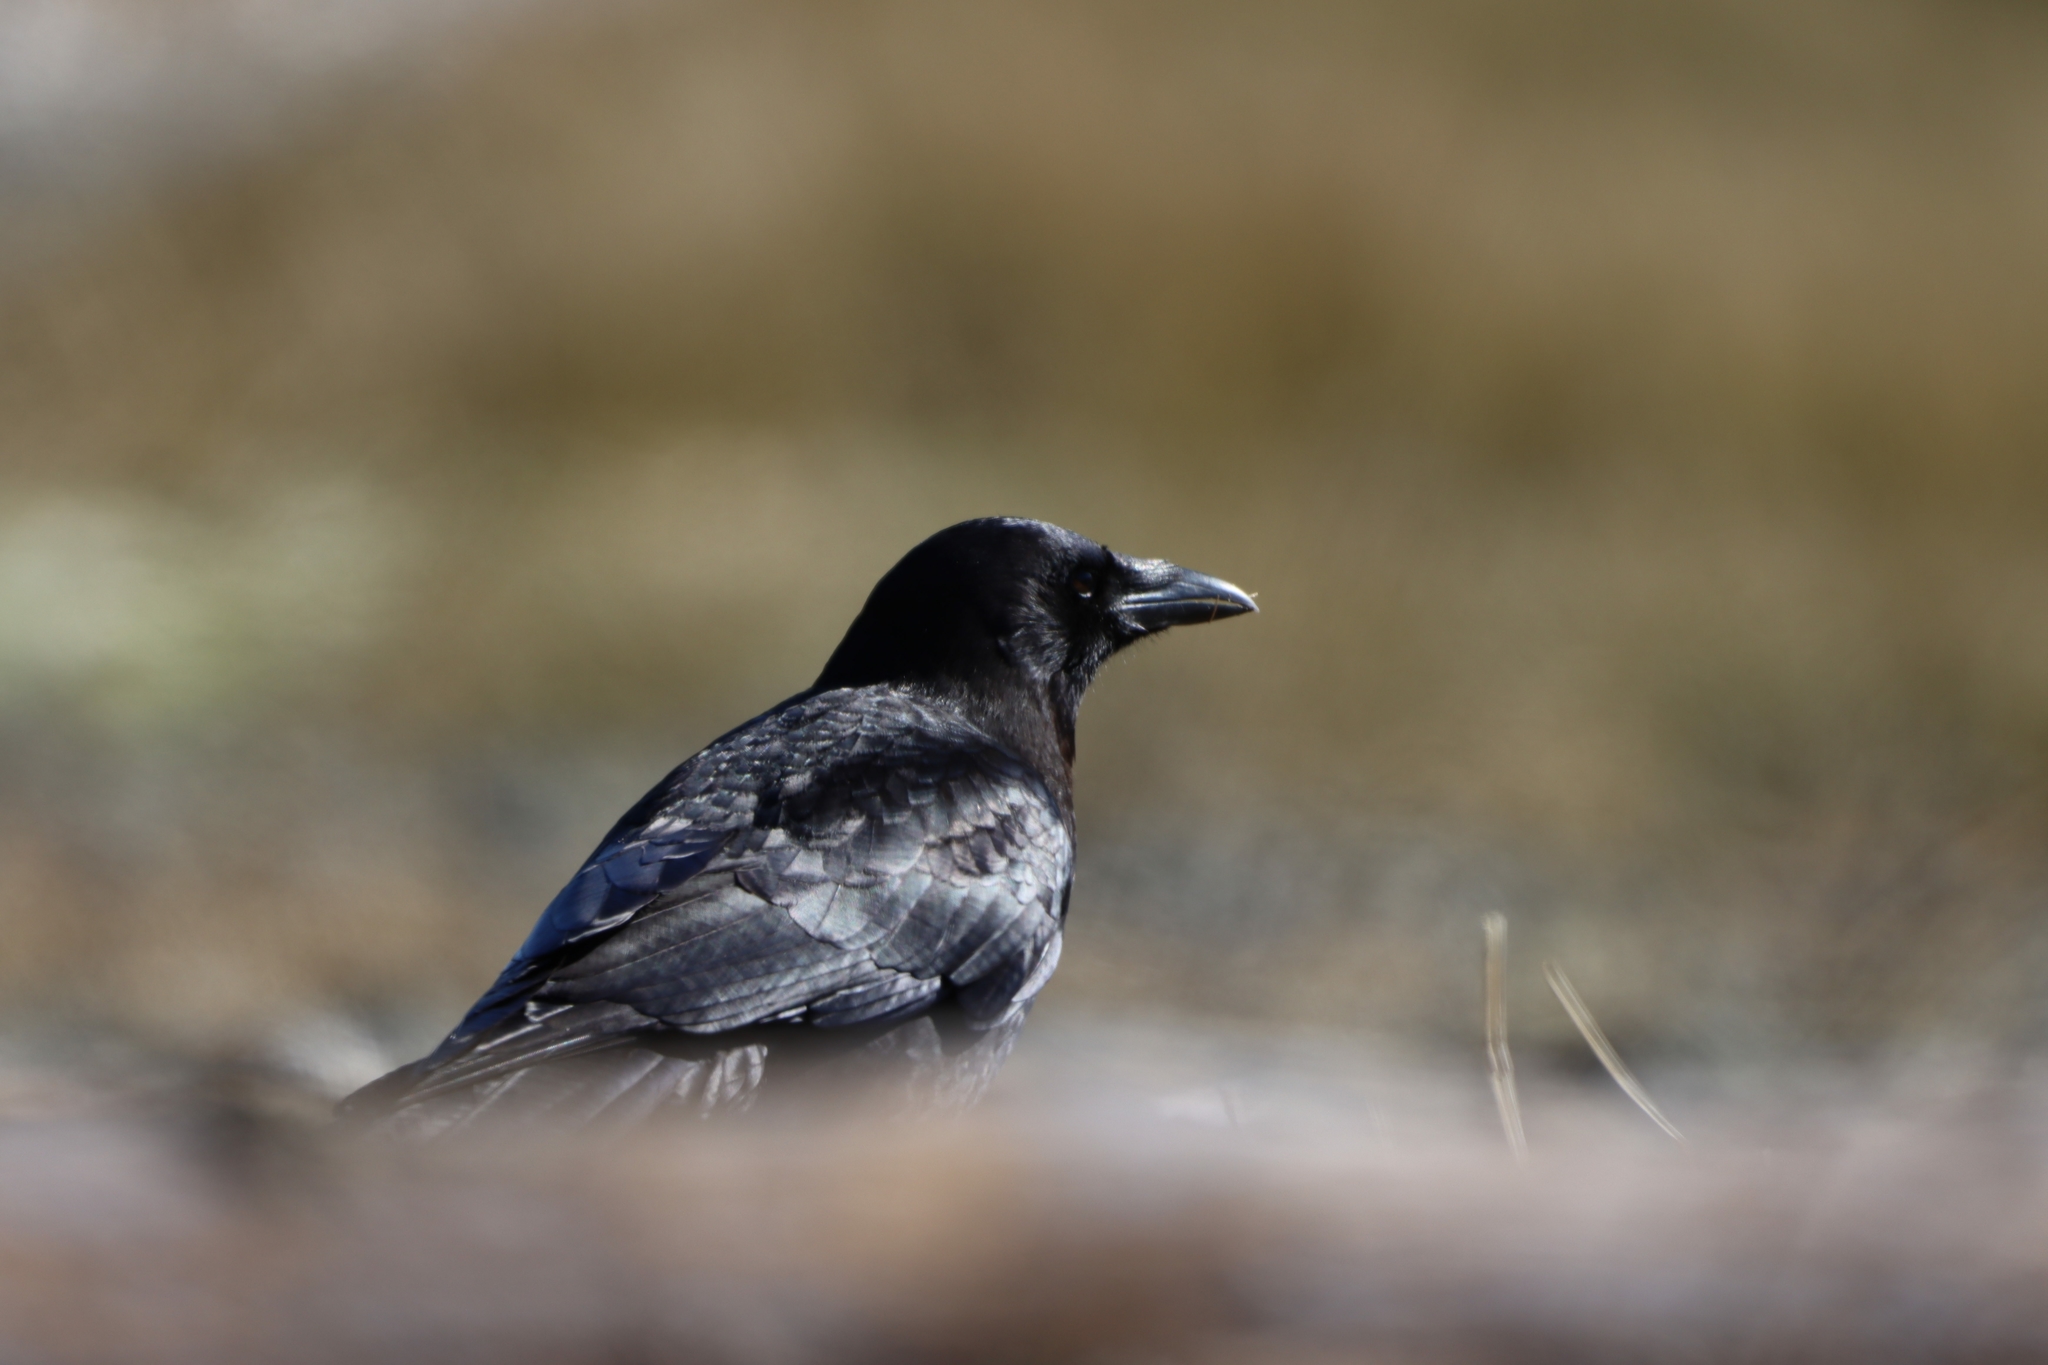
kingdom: Animalia
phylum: Chordata
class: Aves
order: Passeriformes
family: Corvidae
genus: Corvus
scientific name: Corvus brachyrhynchos
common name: American crow
